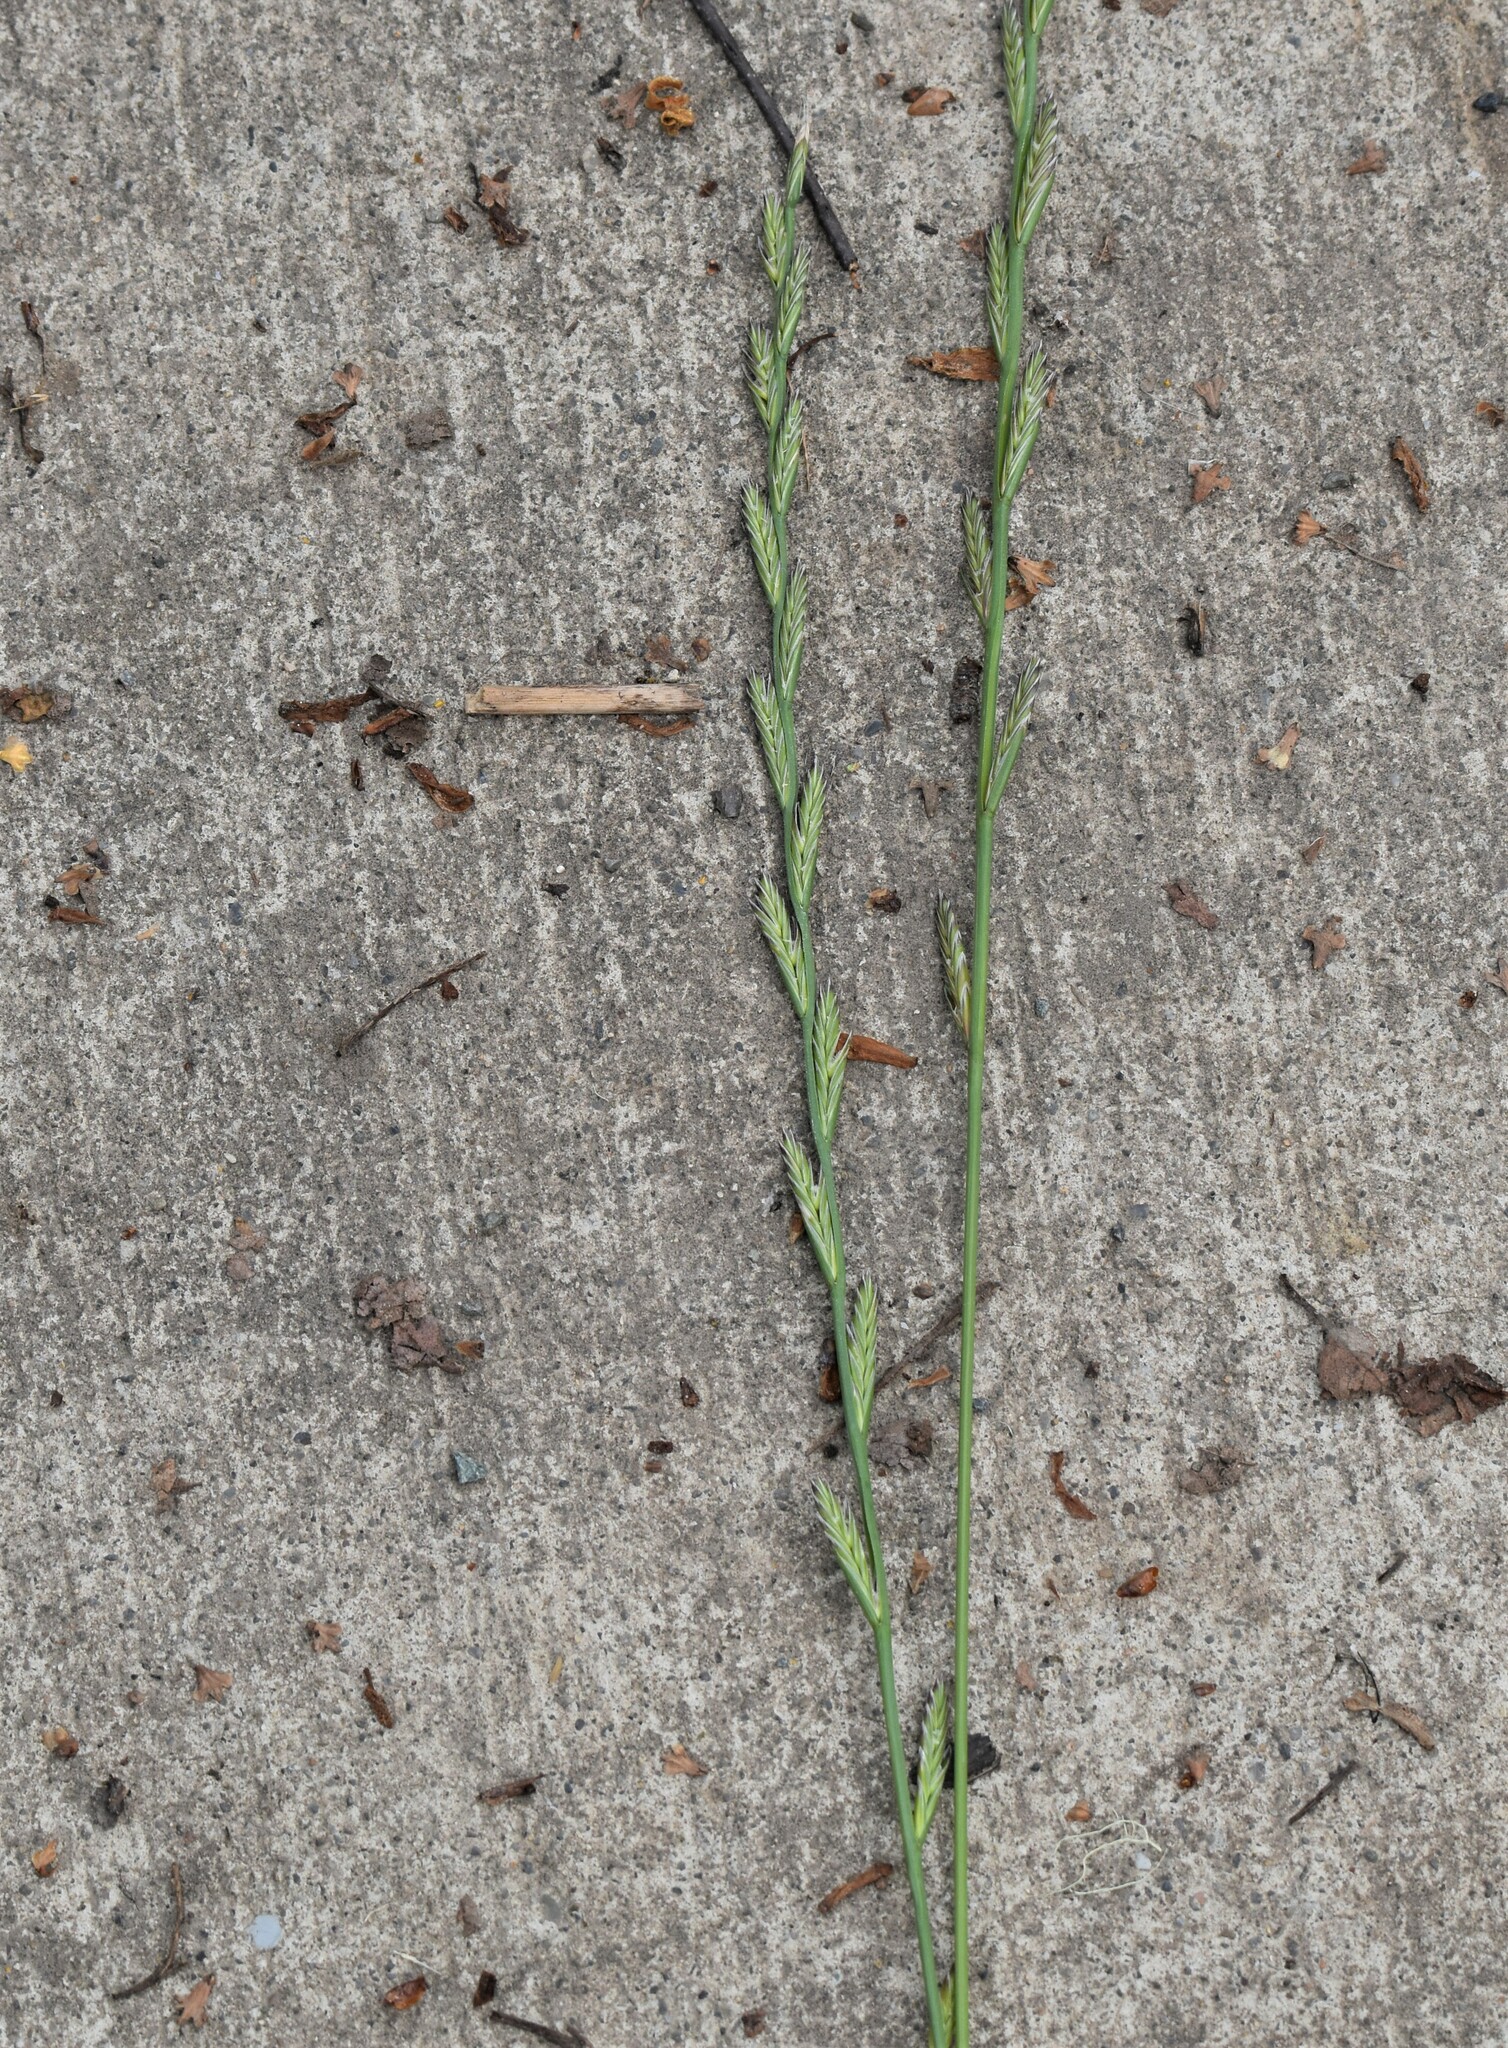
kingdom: Plantae
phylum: Tracheophyta
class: Liliopsida
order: Poales
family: Poaceae
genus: Lolium
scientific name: Lolium perenne
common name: Perennial ryegrass
